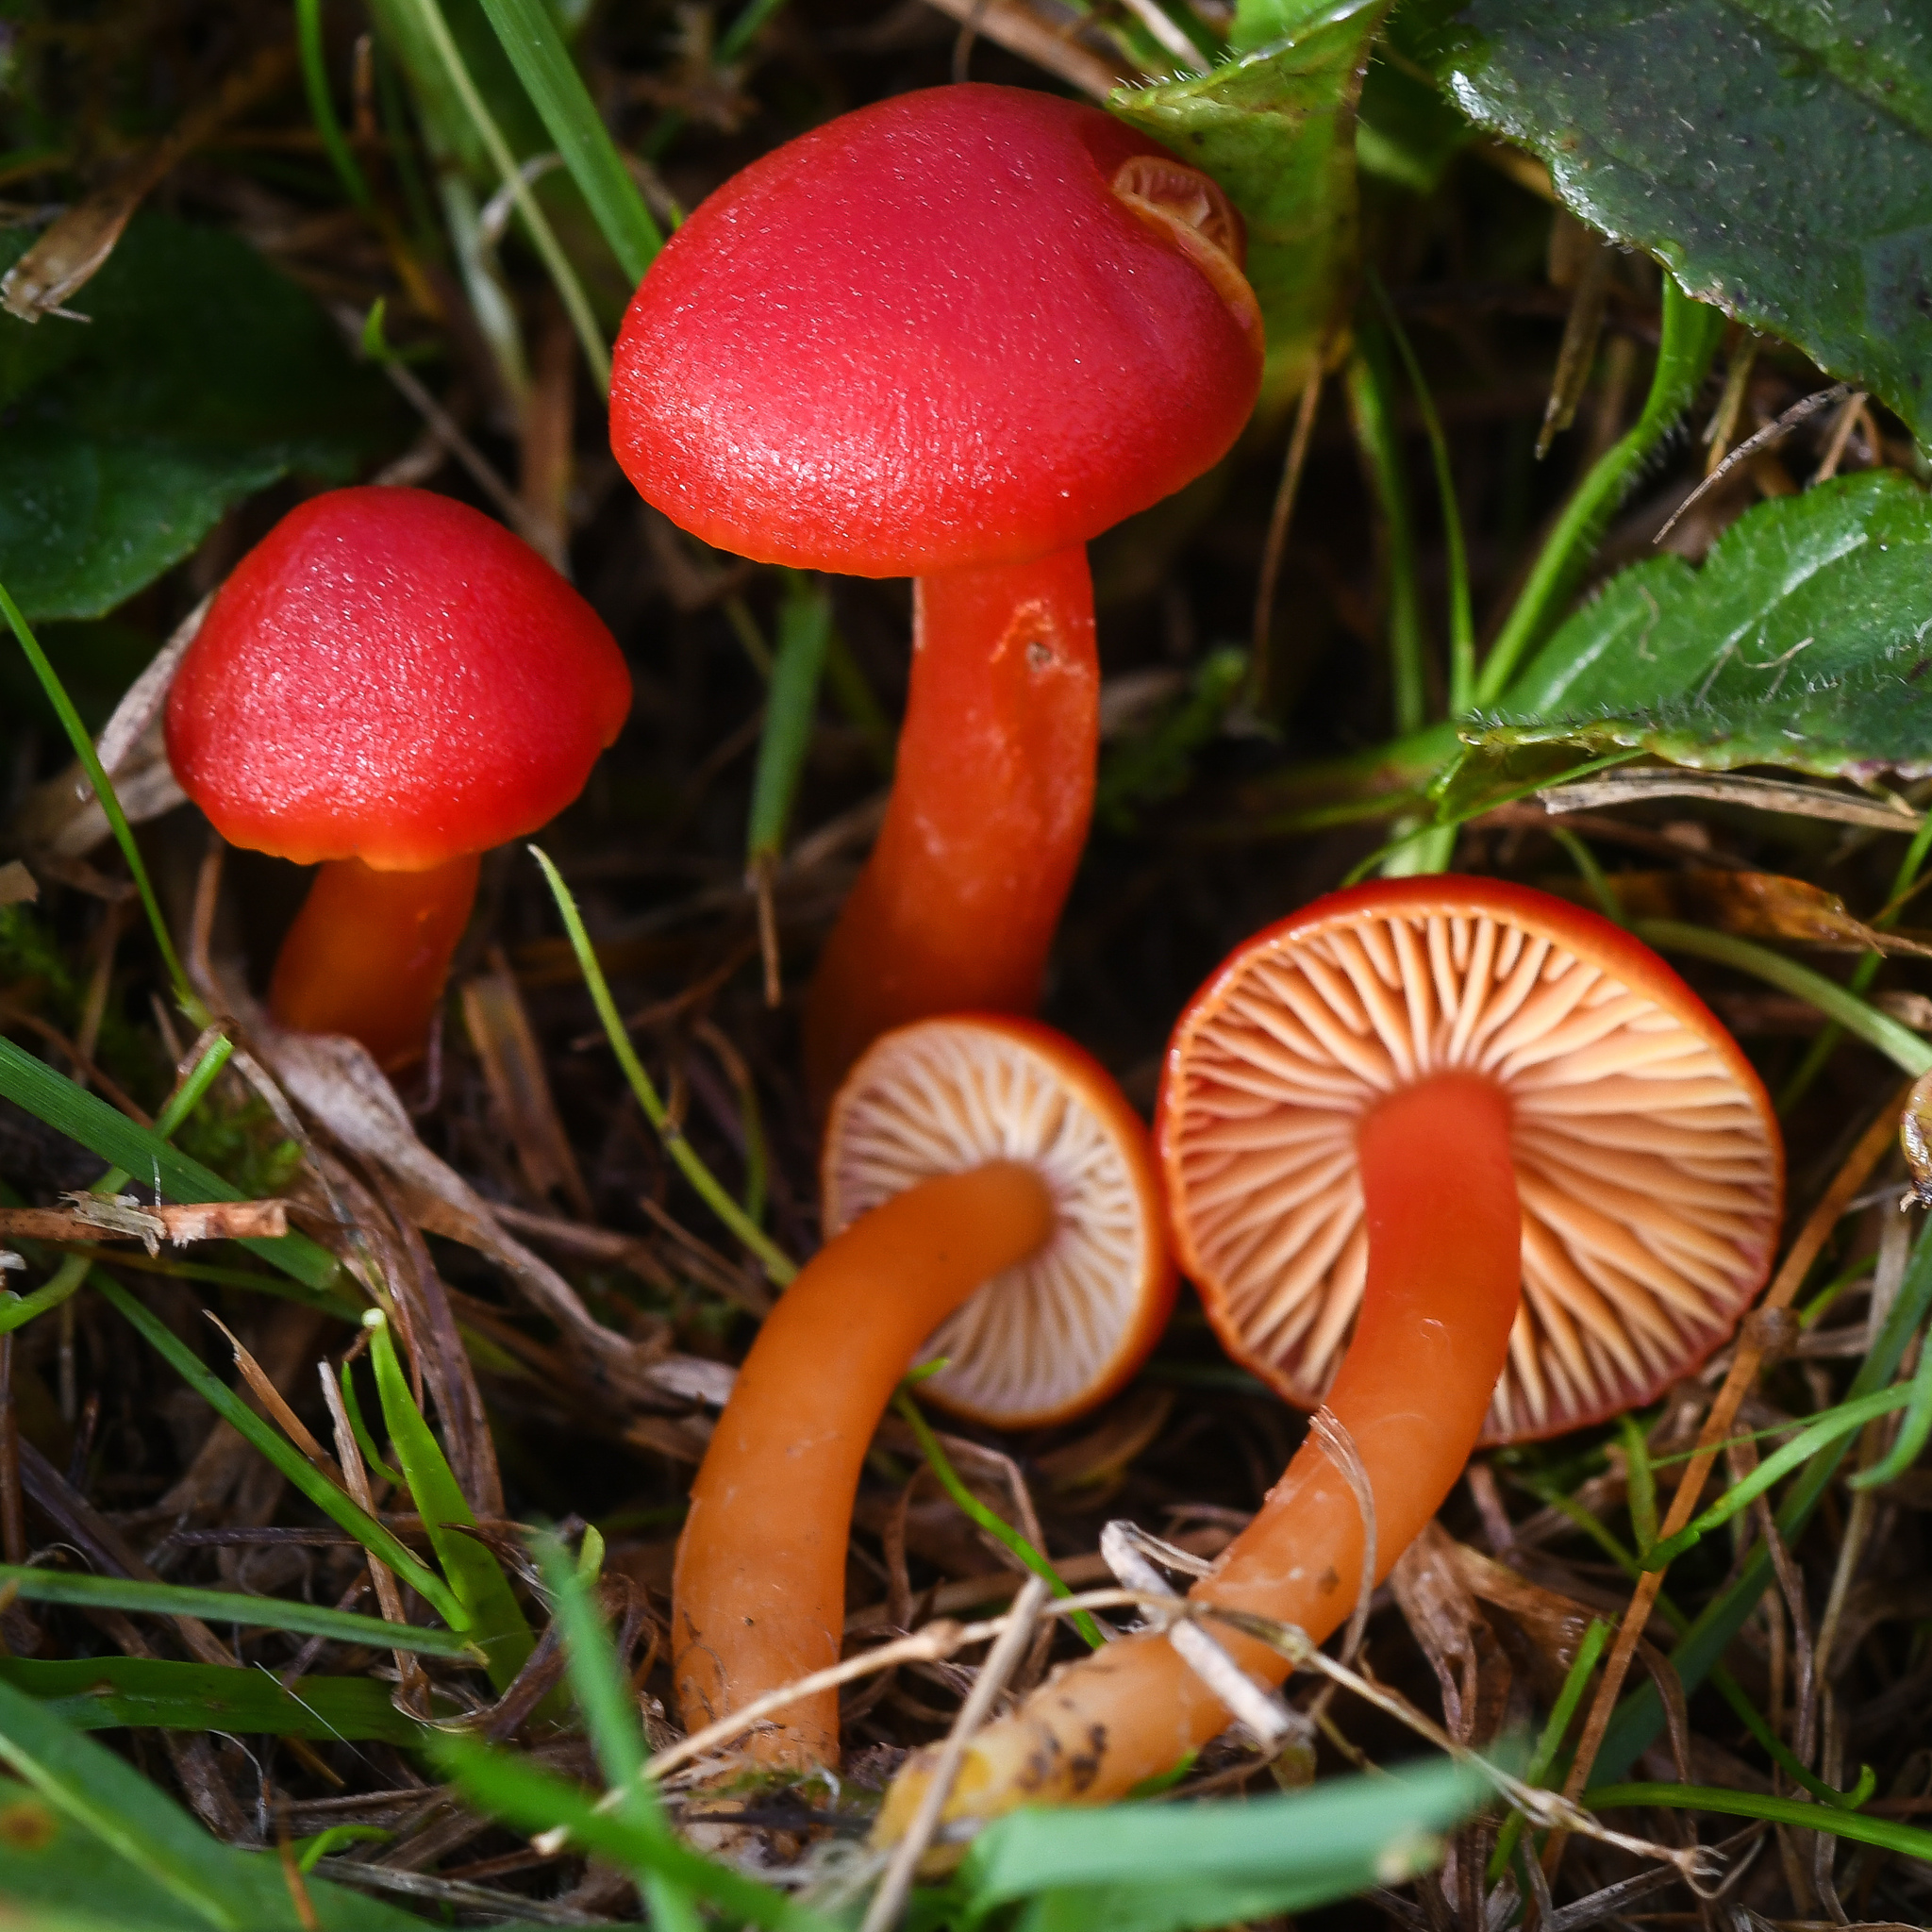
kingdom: Fungi
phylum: Basidiomycota
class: Agaricomycetes
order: Agaricales
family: Hygrophoraceae
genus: Hygrocybe
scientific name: Hygrocybe coccinea
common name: Scarlet hood
